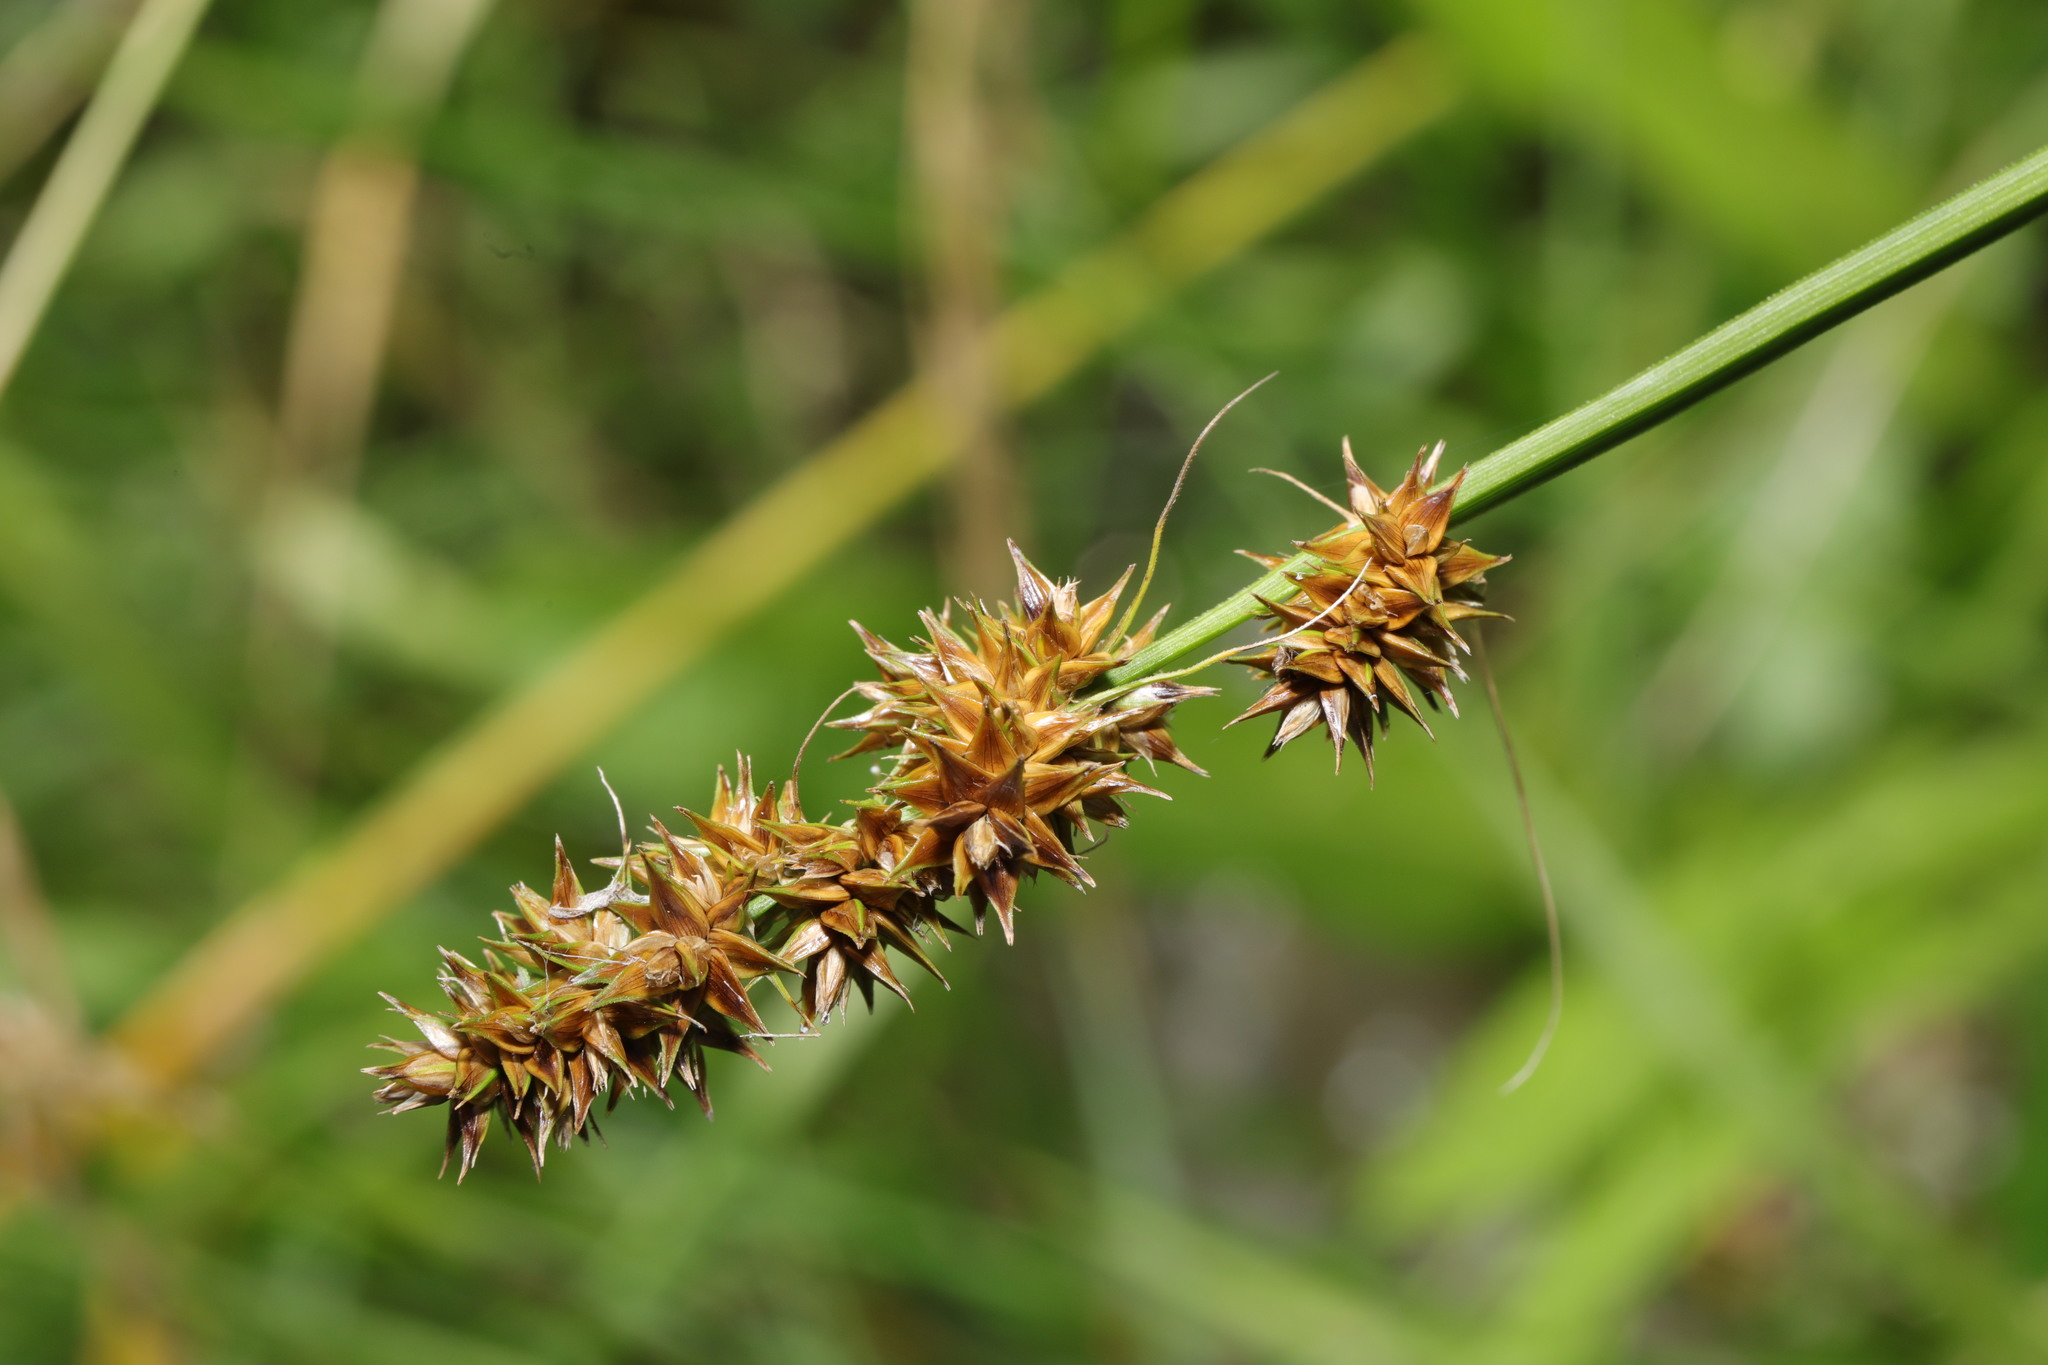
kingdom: Plantae
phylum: Tracheophyta
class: Liliopsida
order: Poales
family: Cyperaceae
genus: Carex
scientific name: Carex otrubae
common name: False fox-sedge
